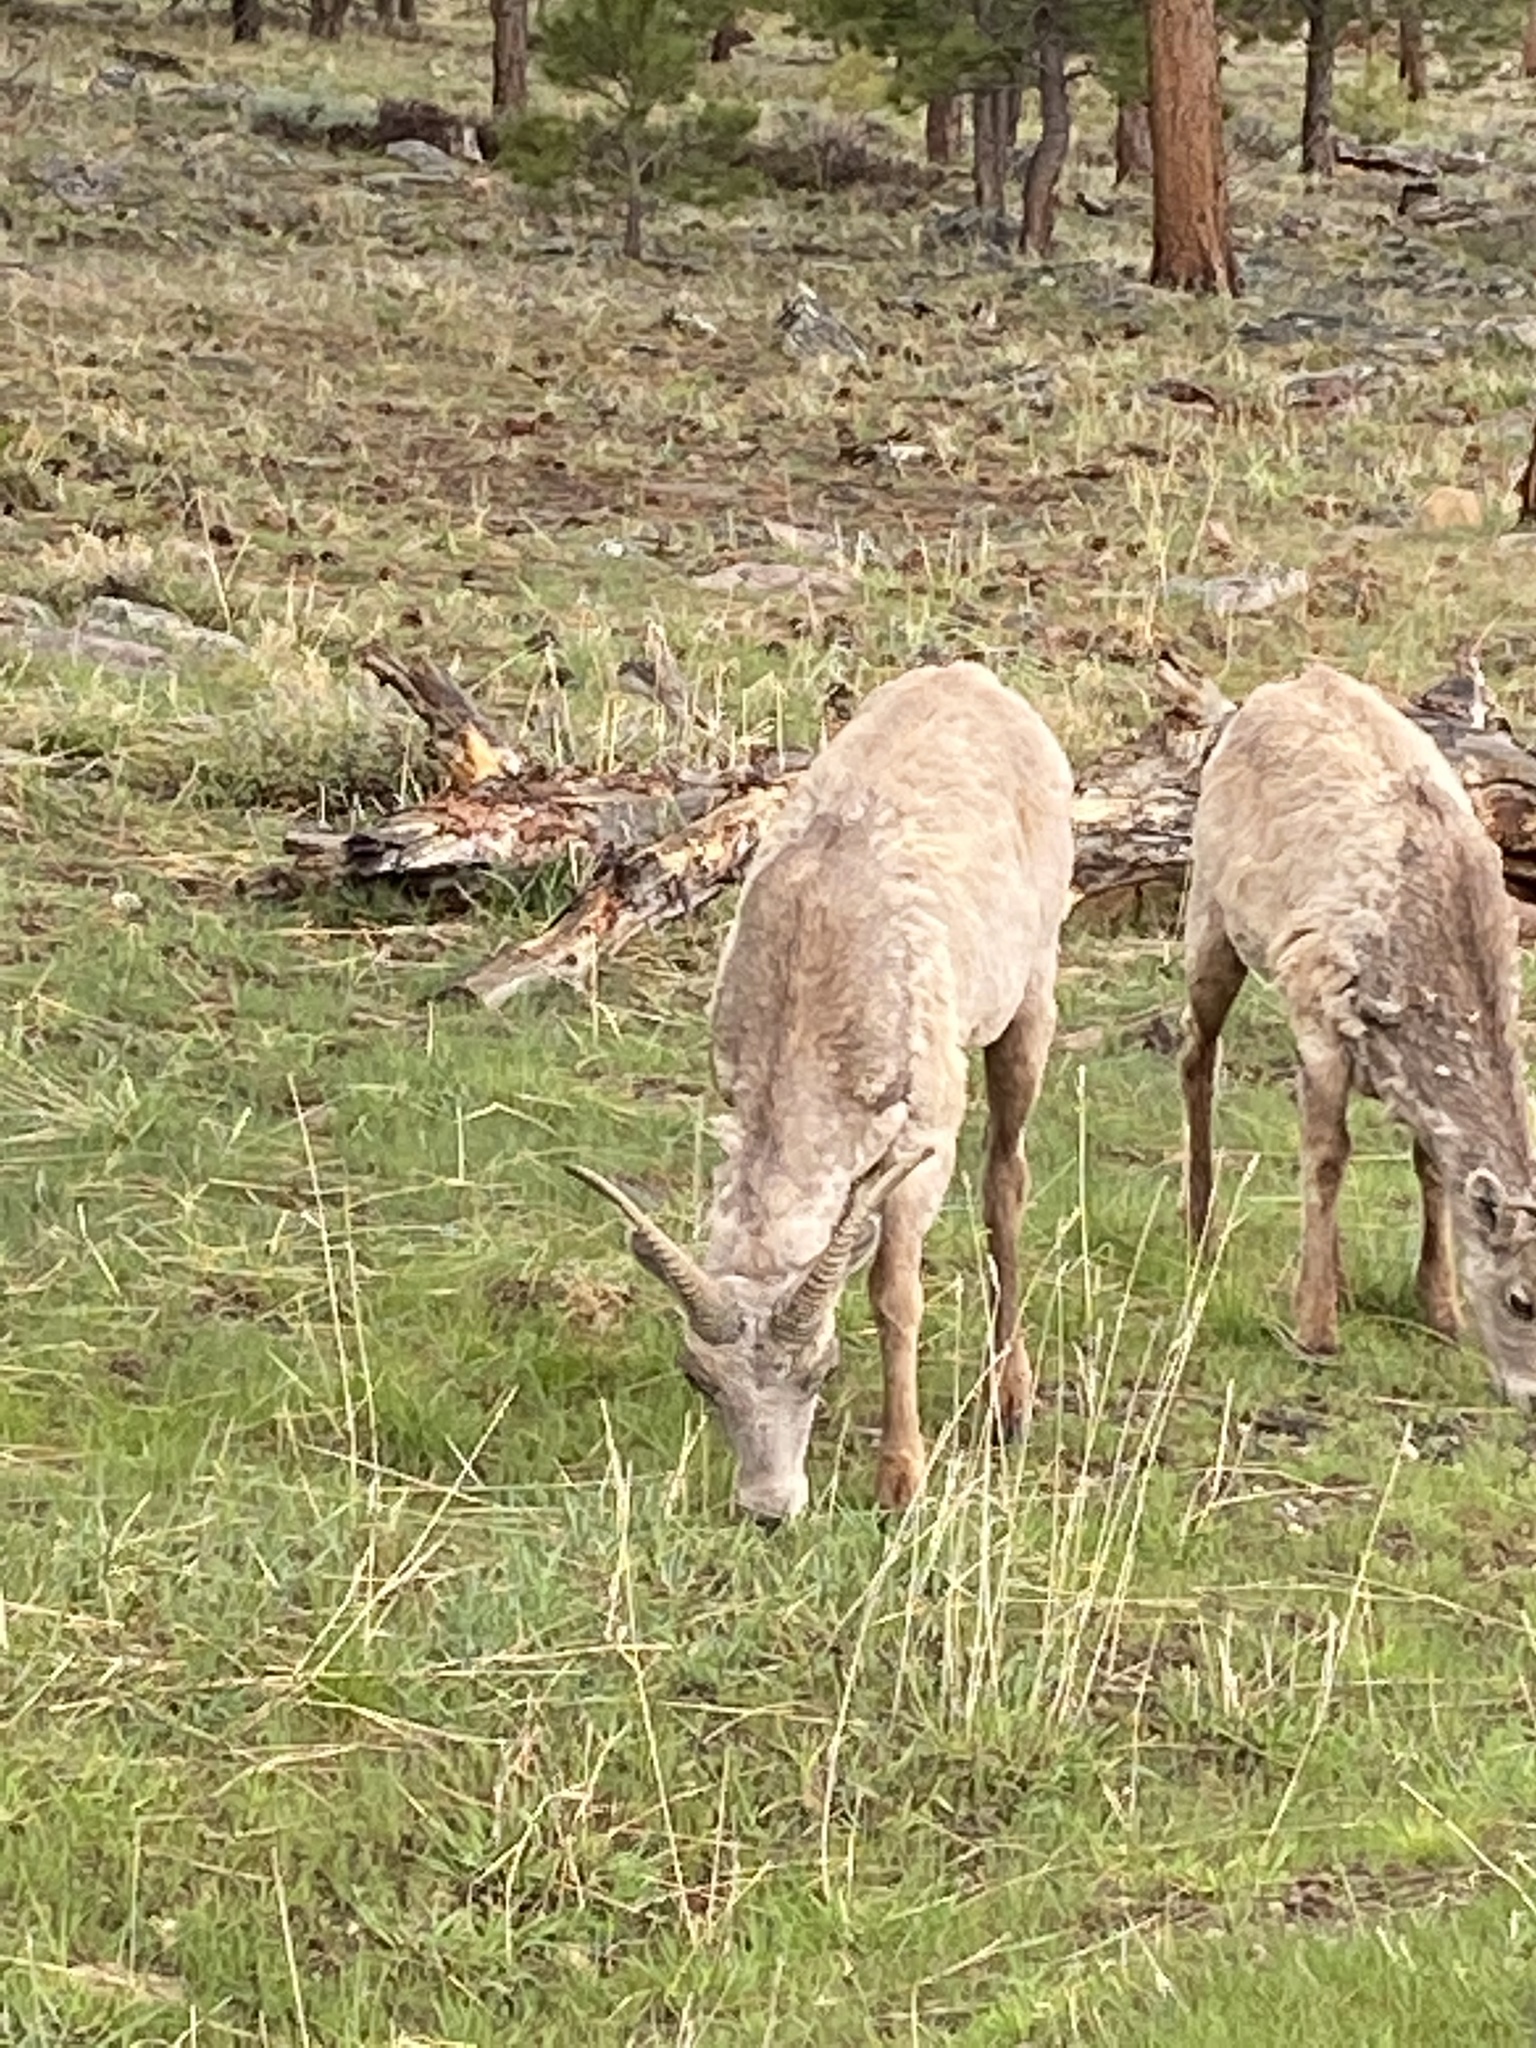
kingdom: Animalia
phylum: Chordata
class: Mammalia
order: Artiodactyla
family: Bovidae
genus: Ovis
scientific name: Ovis canadensis
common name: Bighorn sheep
